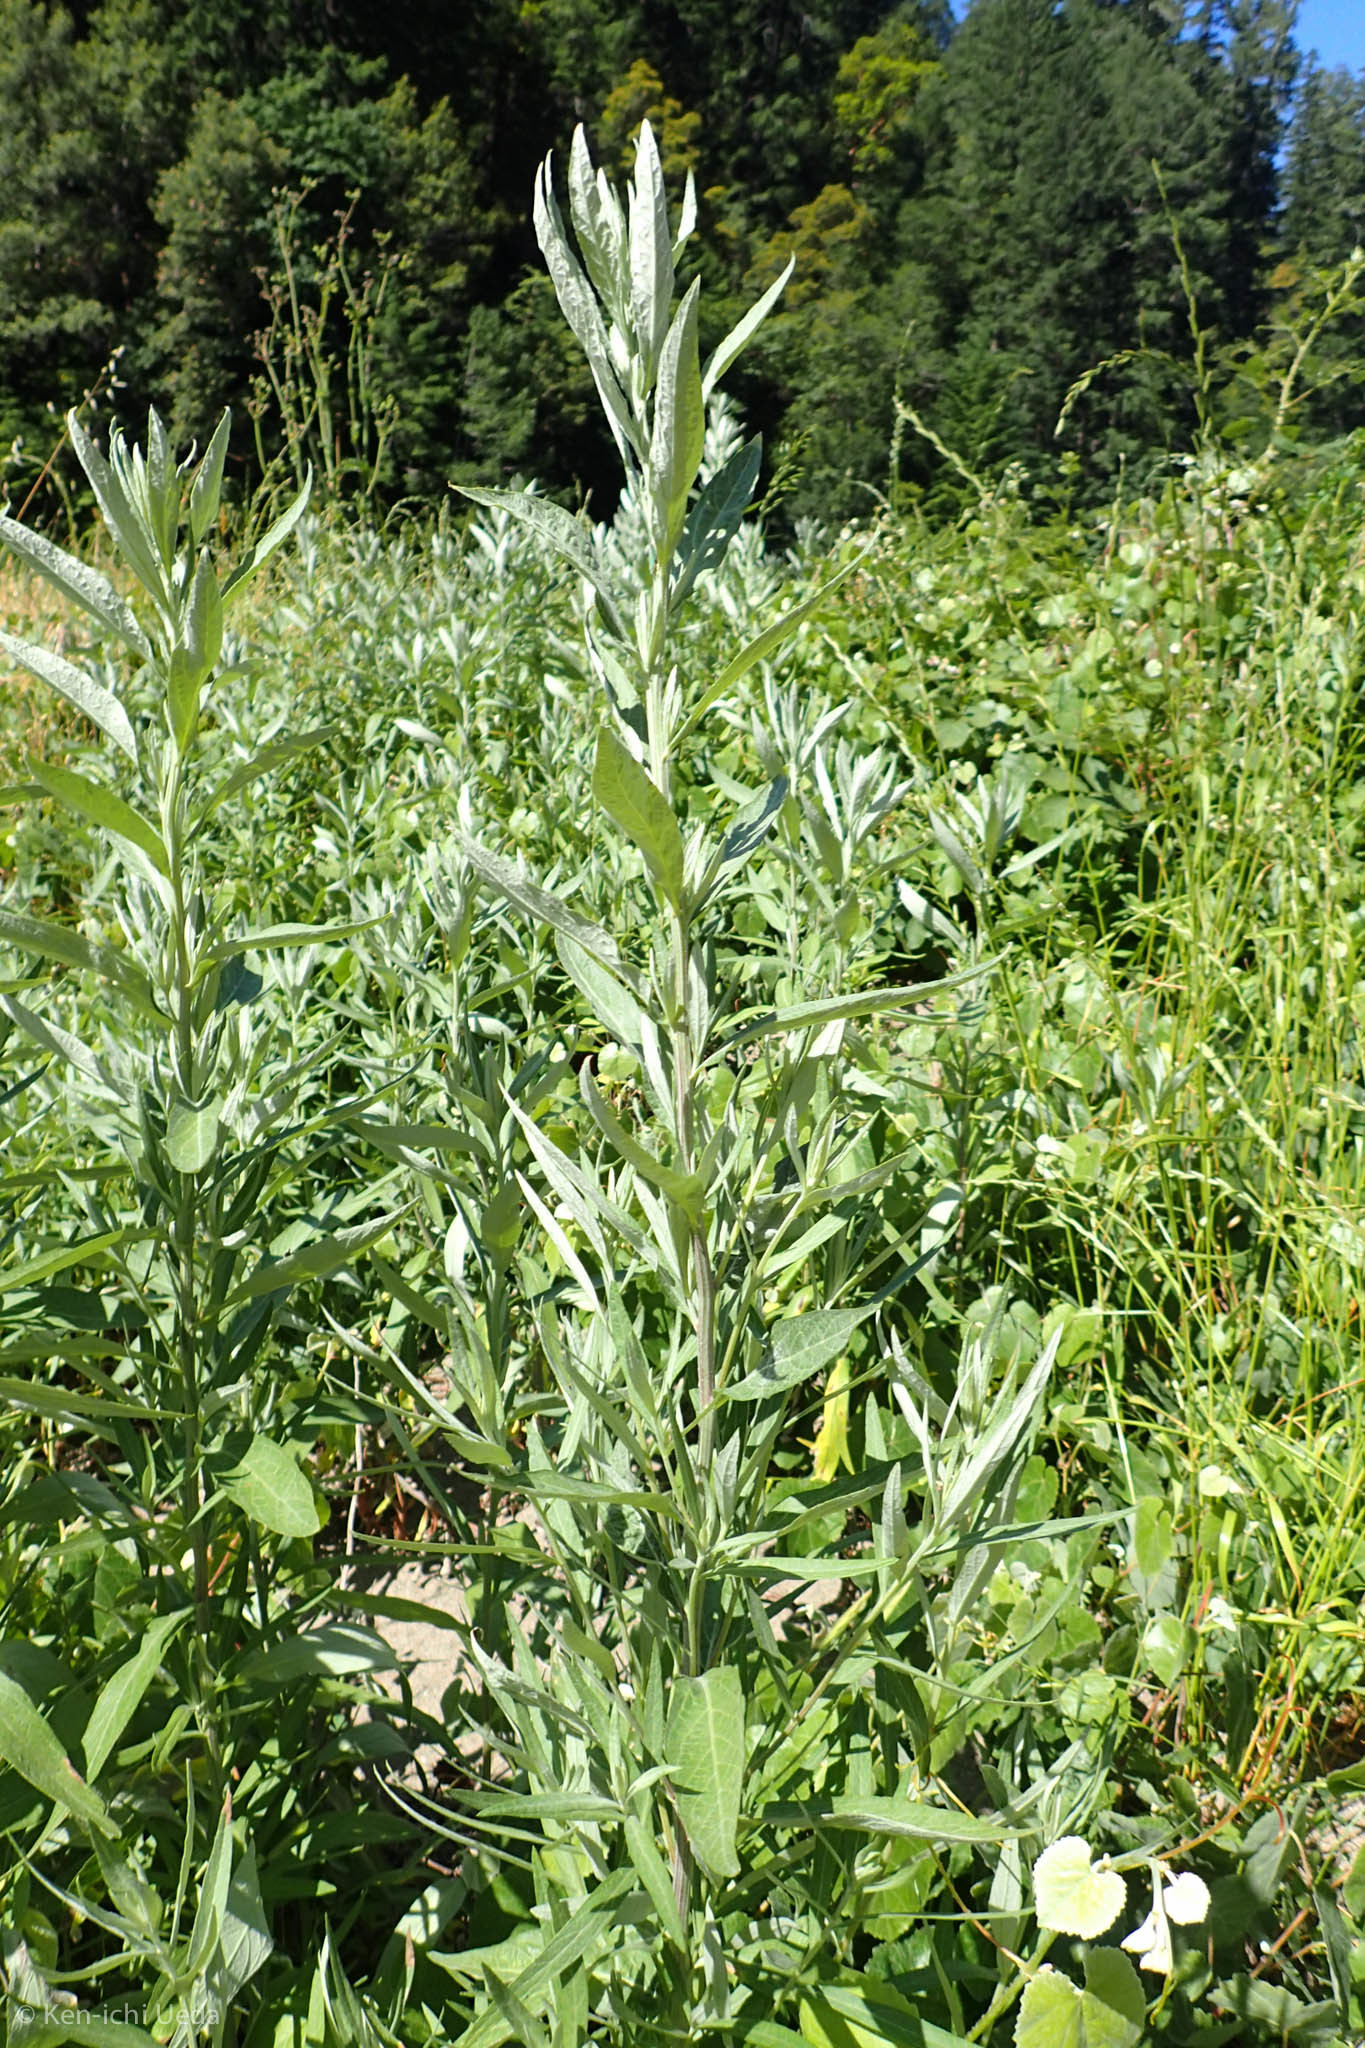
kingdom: Plantae
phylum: Tracheophyta
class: Magnoliopsida
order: Asterales
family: Asteraceae
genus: Artemisia
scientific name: Artemisia douglasiana
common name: Northwest mugwort
